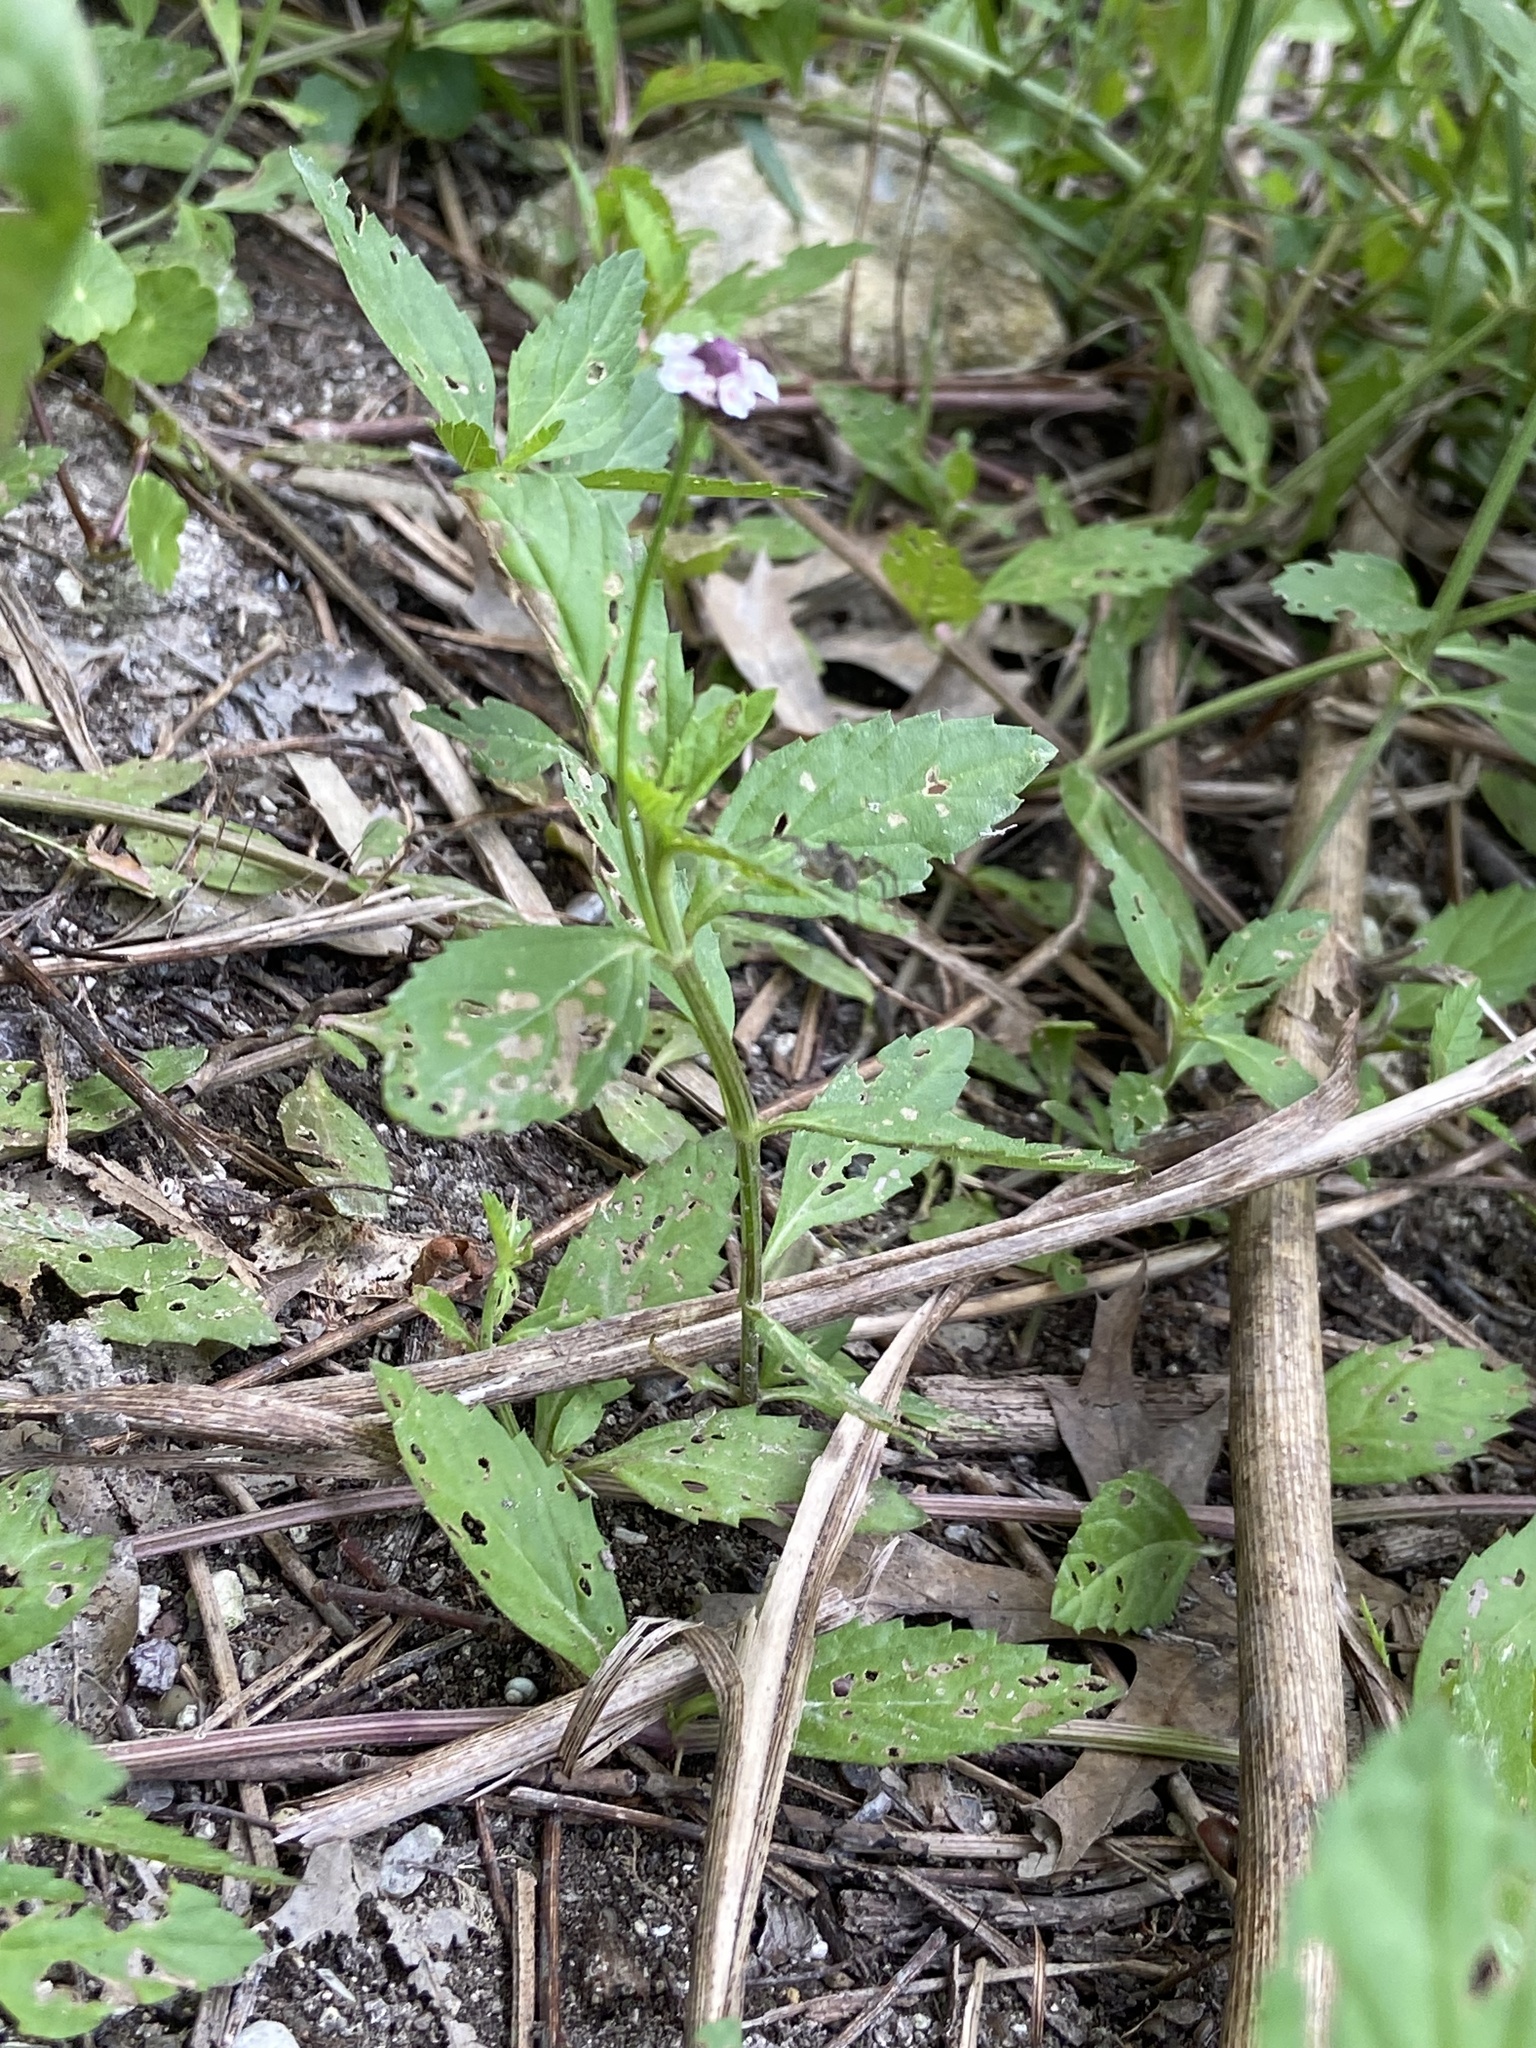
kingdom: Plantae
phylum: Tracheophyta
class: Magnoliopsida
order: Lamiales
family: Verbenaceae
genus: Phyla
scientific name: Phyla lanceolata
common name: Northern fogfruit
